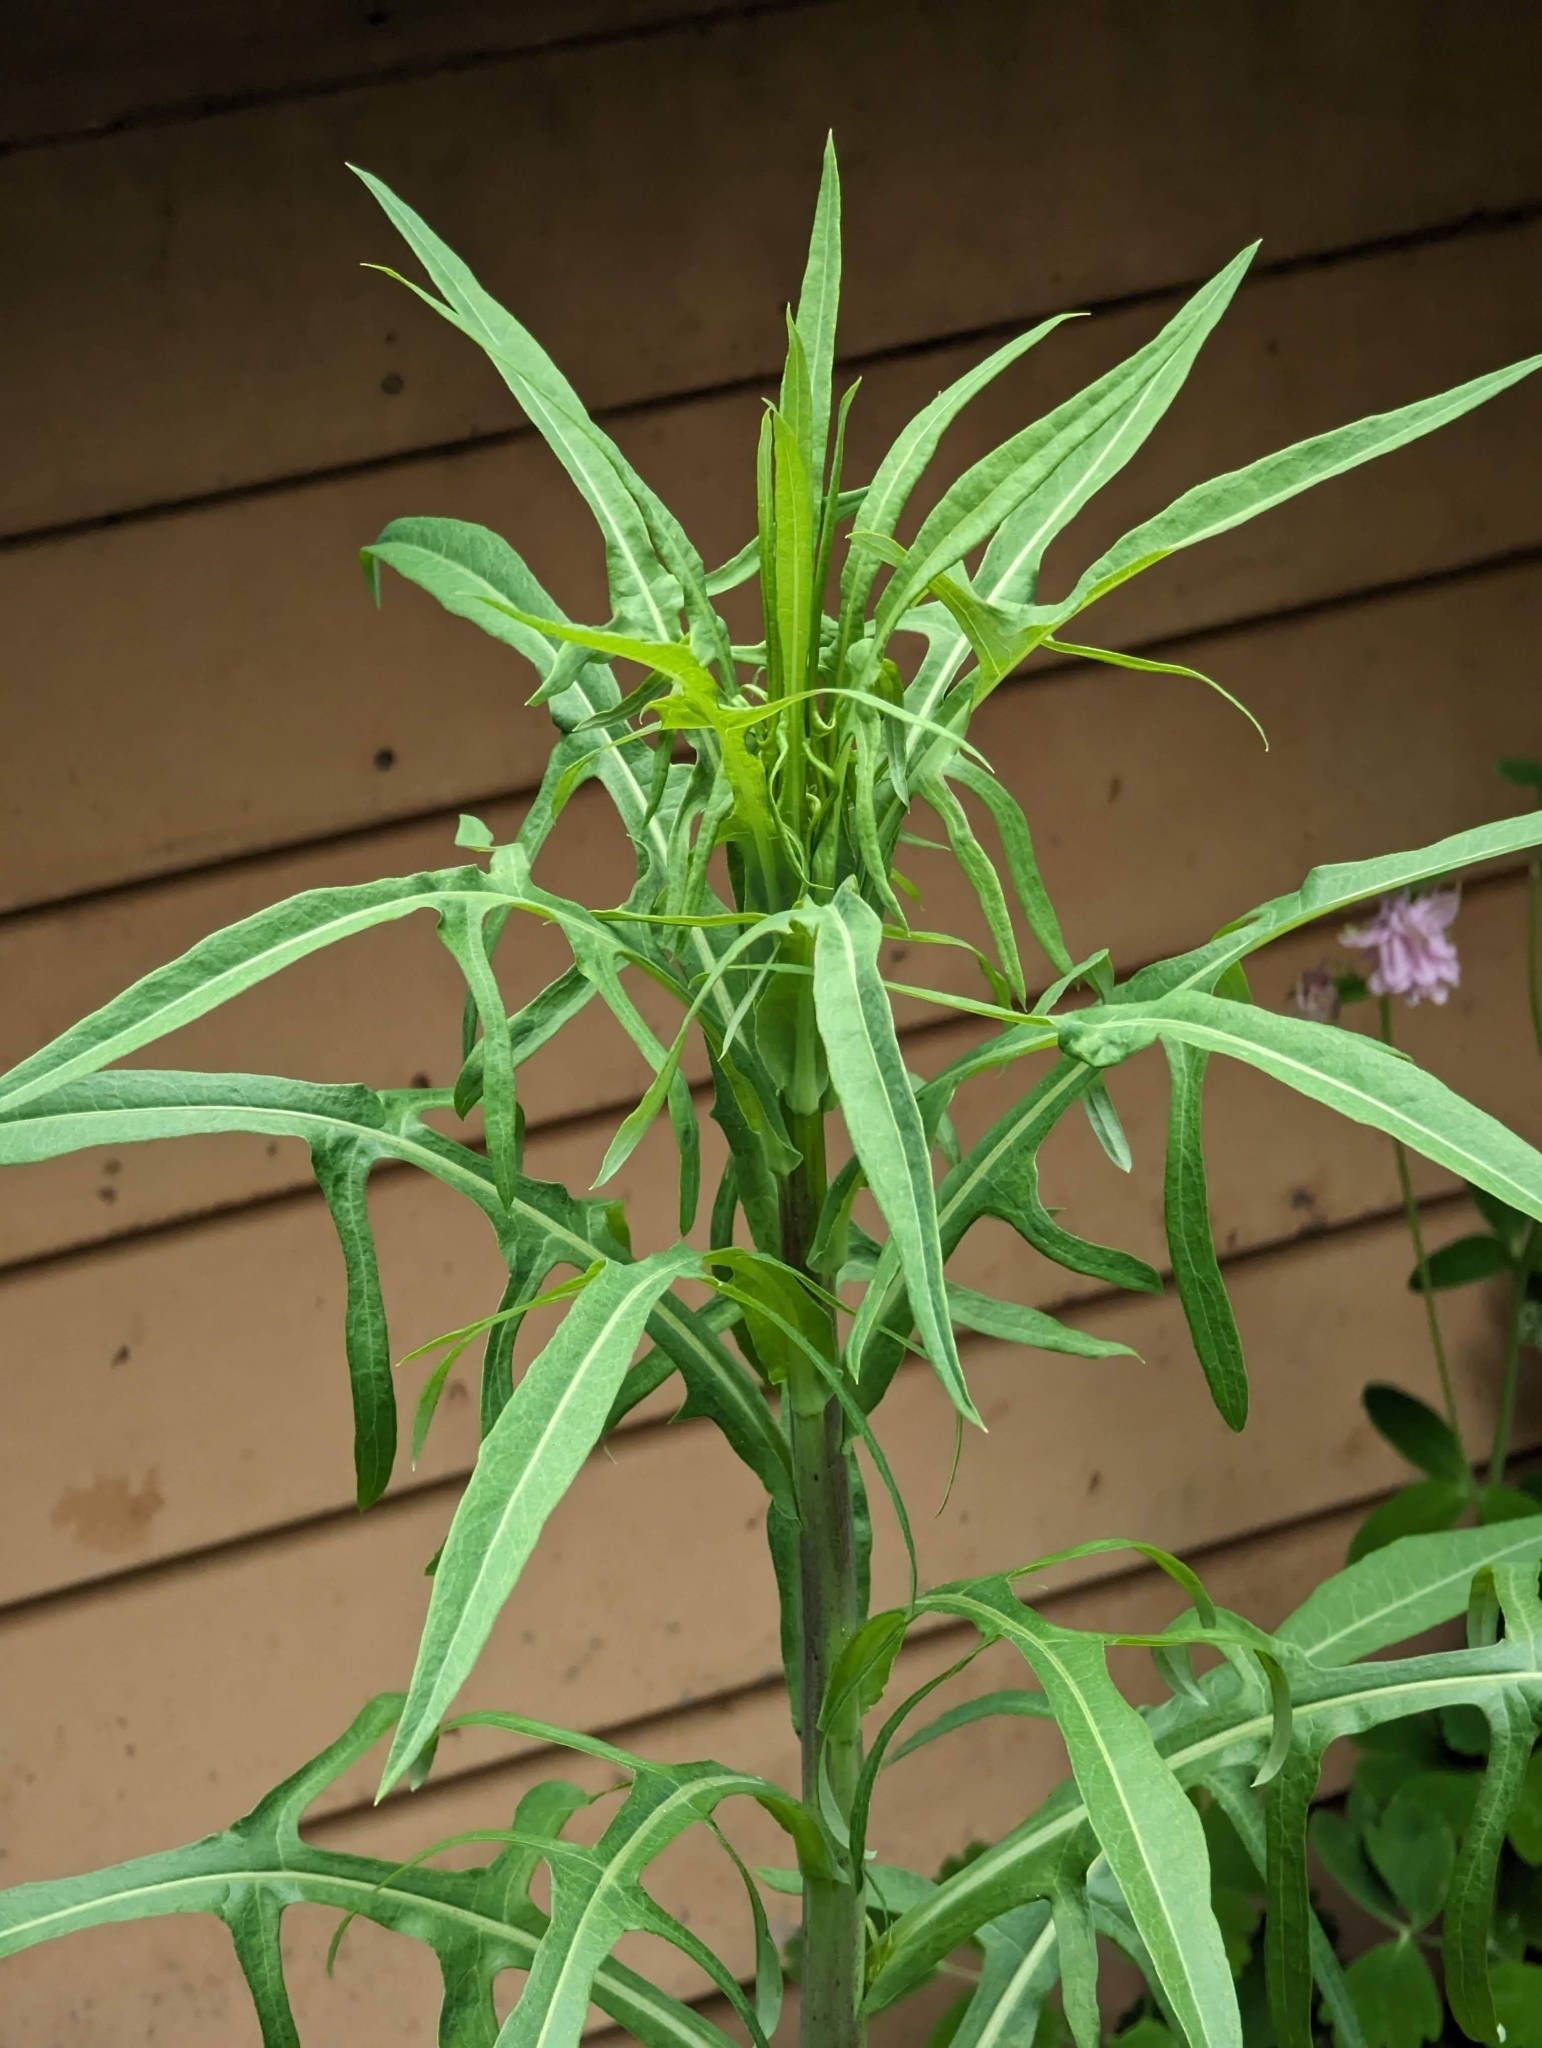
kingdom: Plantae
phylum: Tracheophyta
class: Magnoliopsida
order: Asterales
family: Asteraceae
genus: Lactuca
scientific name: Lactuca canadensis
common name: Canada lettuce
